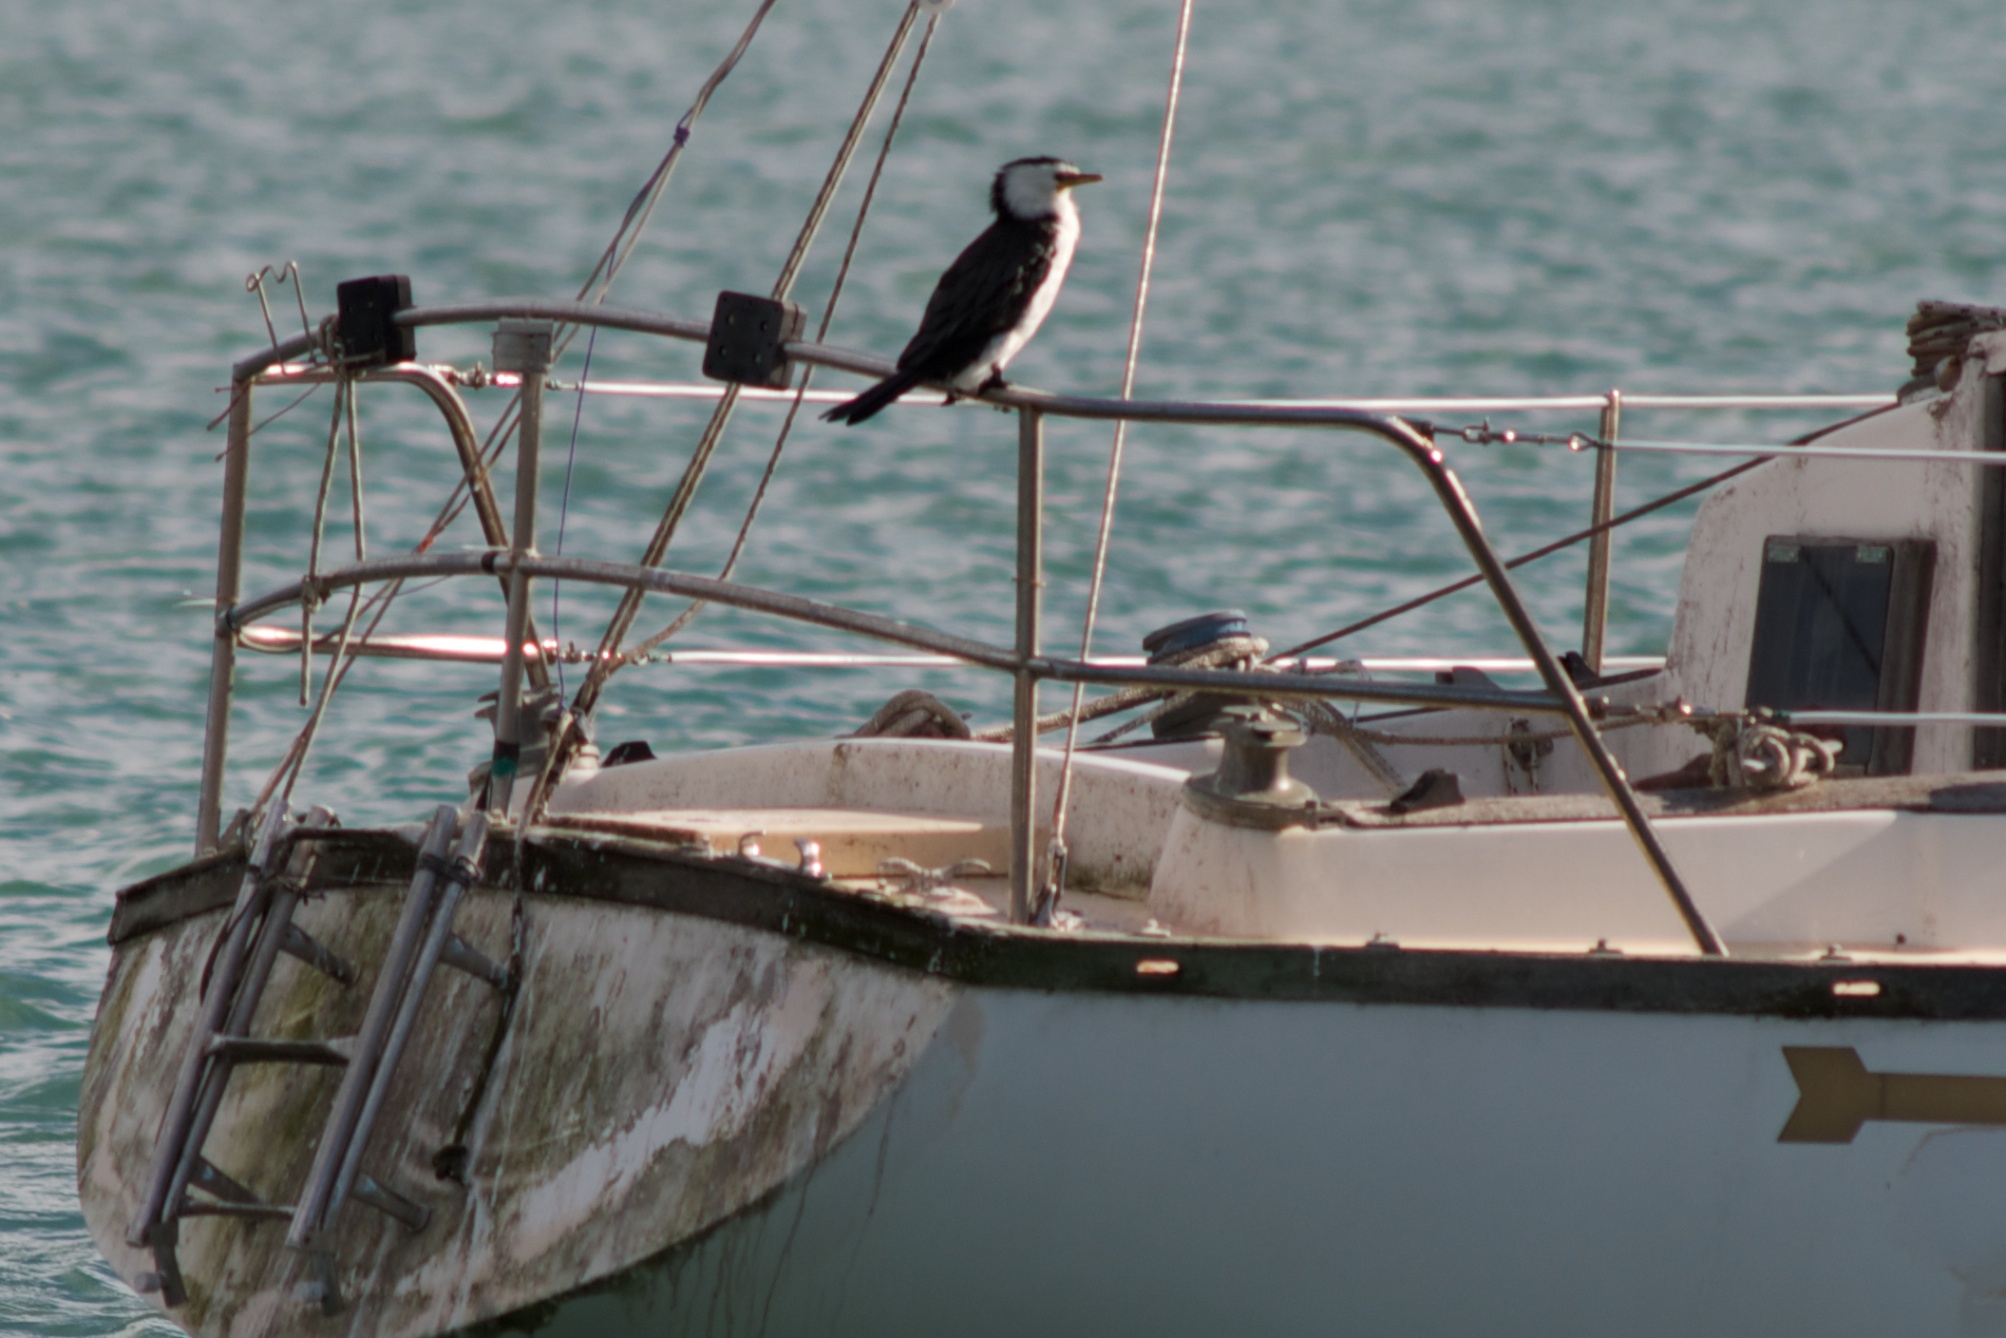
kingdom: Animalia
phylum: Chordata
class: Aves
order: Suliformes
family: Phalacrocoracidae
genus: Microcarbo
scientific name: Microcarbo melanoleucos
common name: Little pied cormorant
